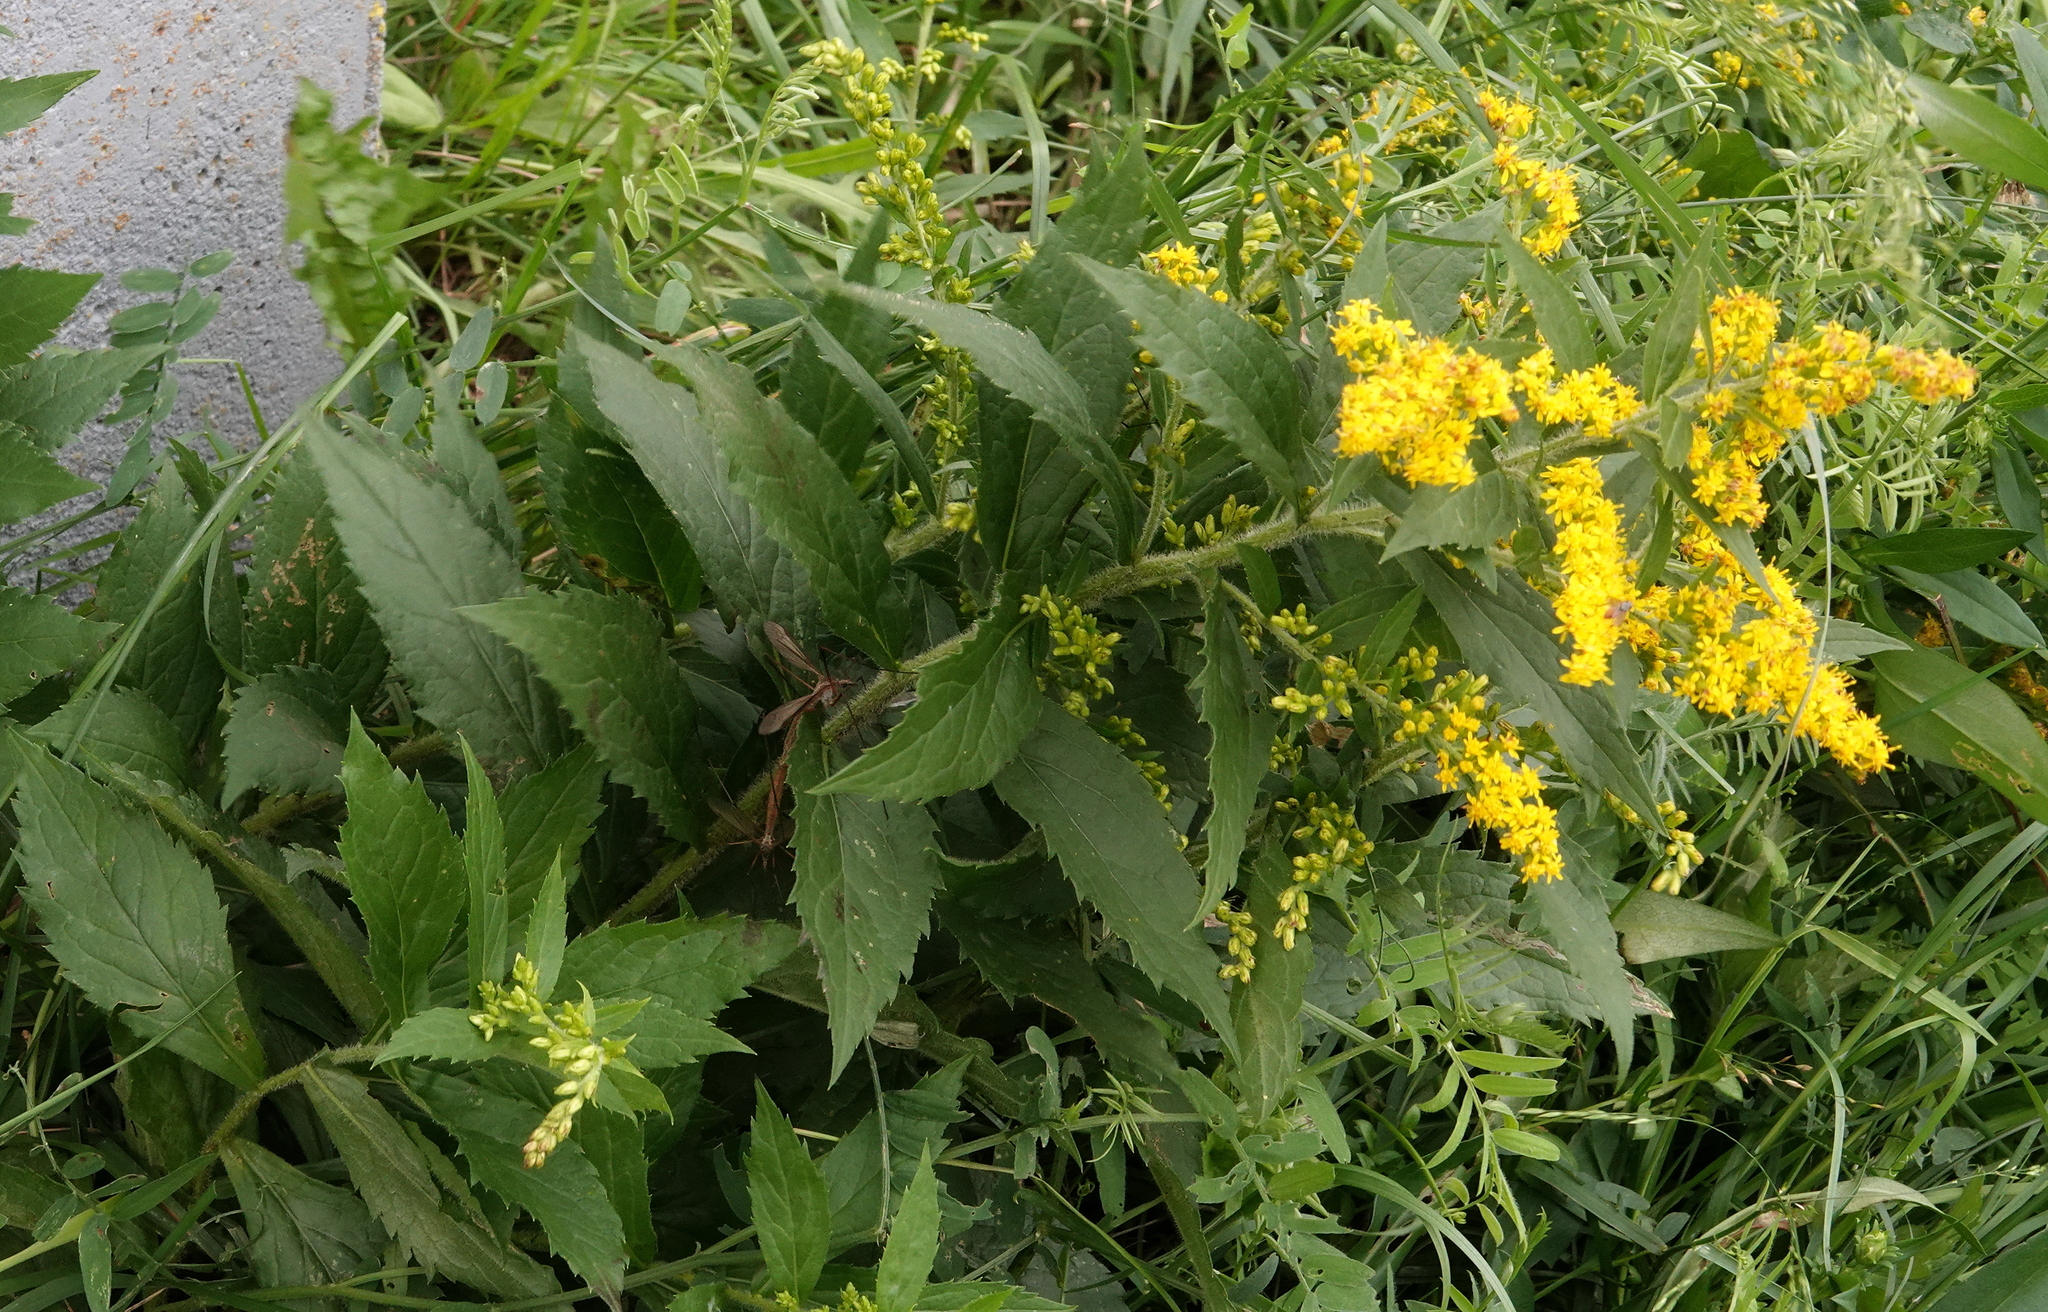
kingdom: Plantae
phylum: Tracheophyta
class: Magnoliopsida
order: Asterales
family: Asteraceae
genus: Solidago
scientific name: Solidago rugosa
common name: Rough-stemmed goldenrod
